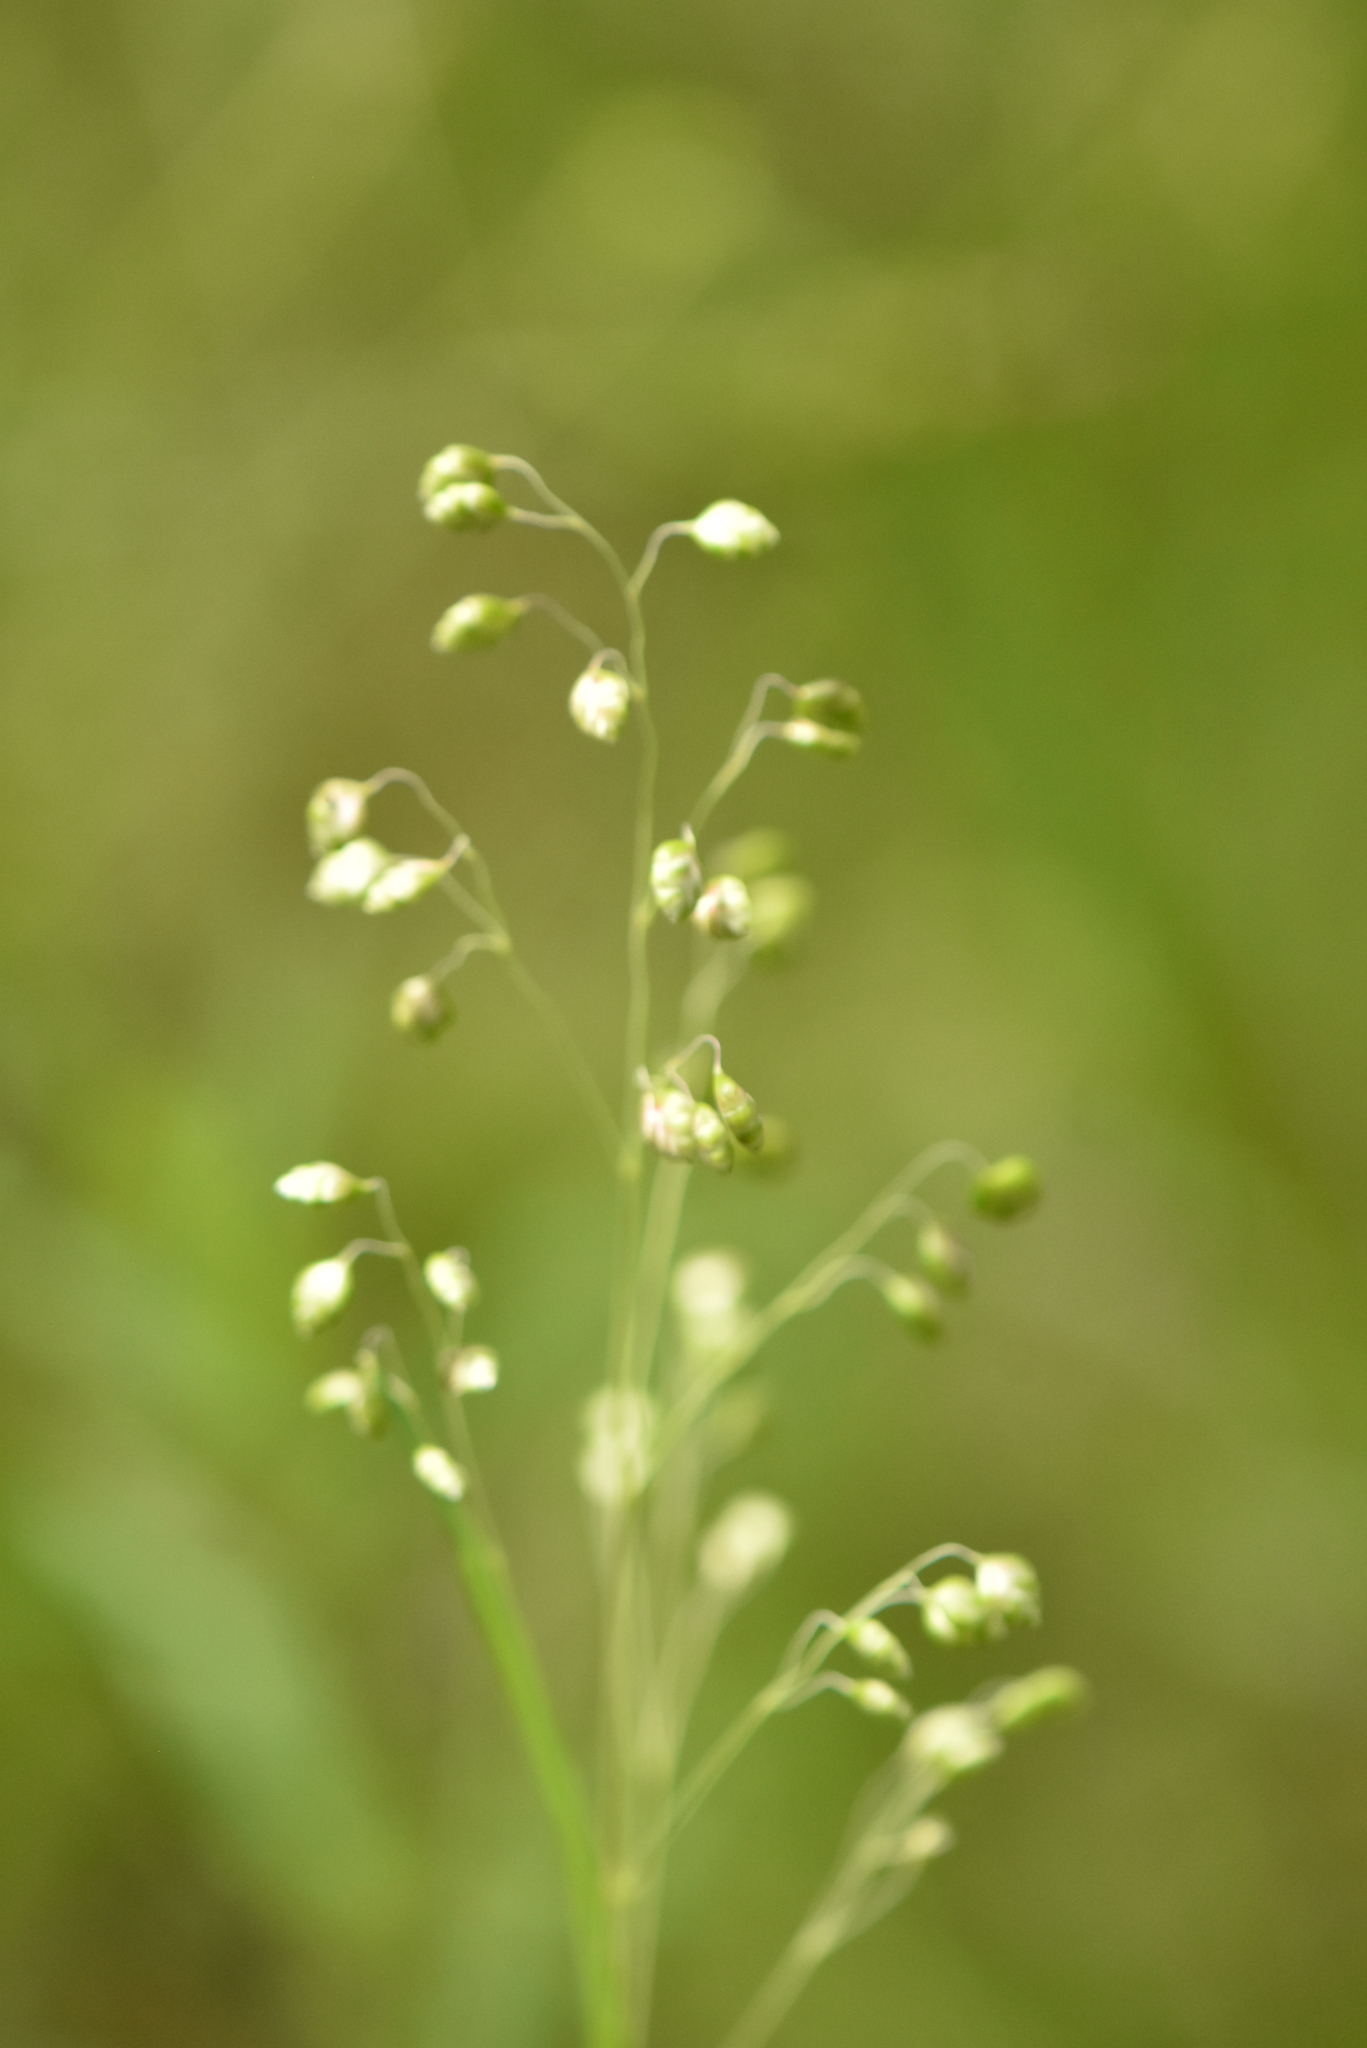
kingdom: Plantae
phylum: Tracheophyta
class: Liliopsida
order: Poales
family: Poaceae
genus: Briza
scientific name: Briza media
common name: Quaking grass
